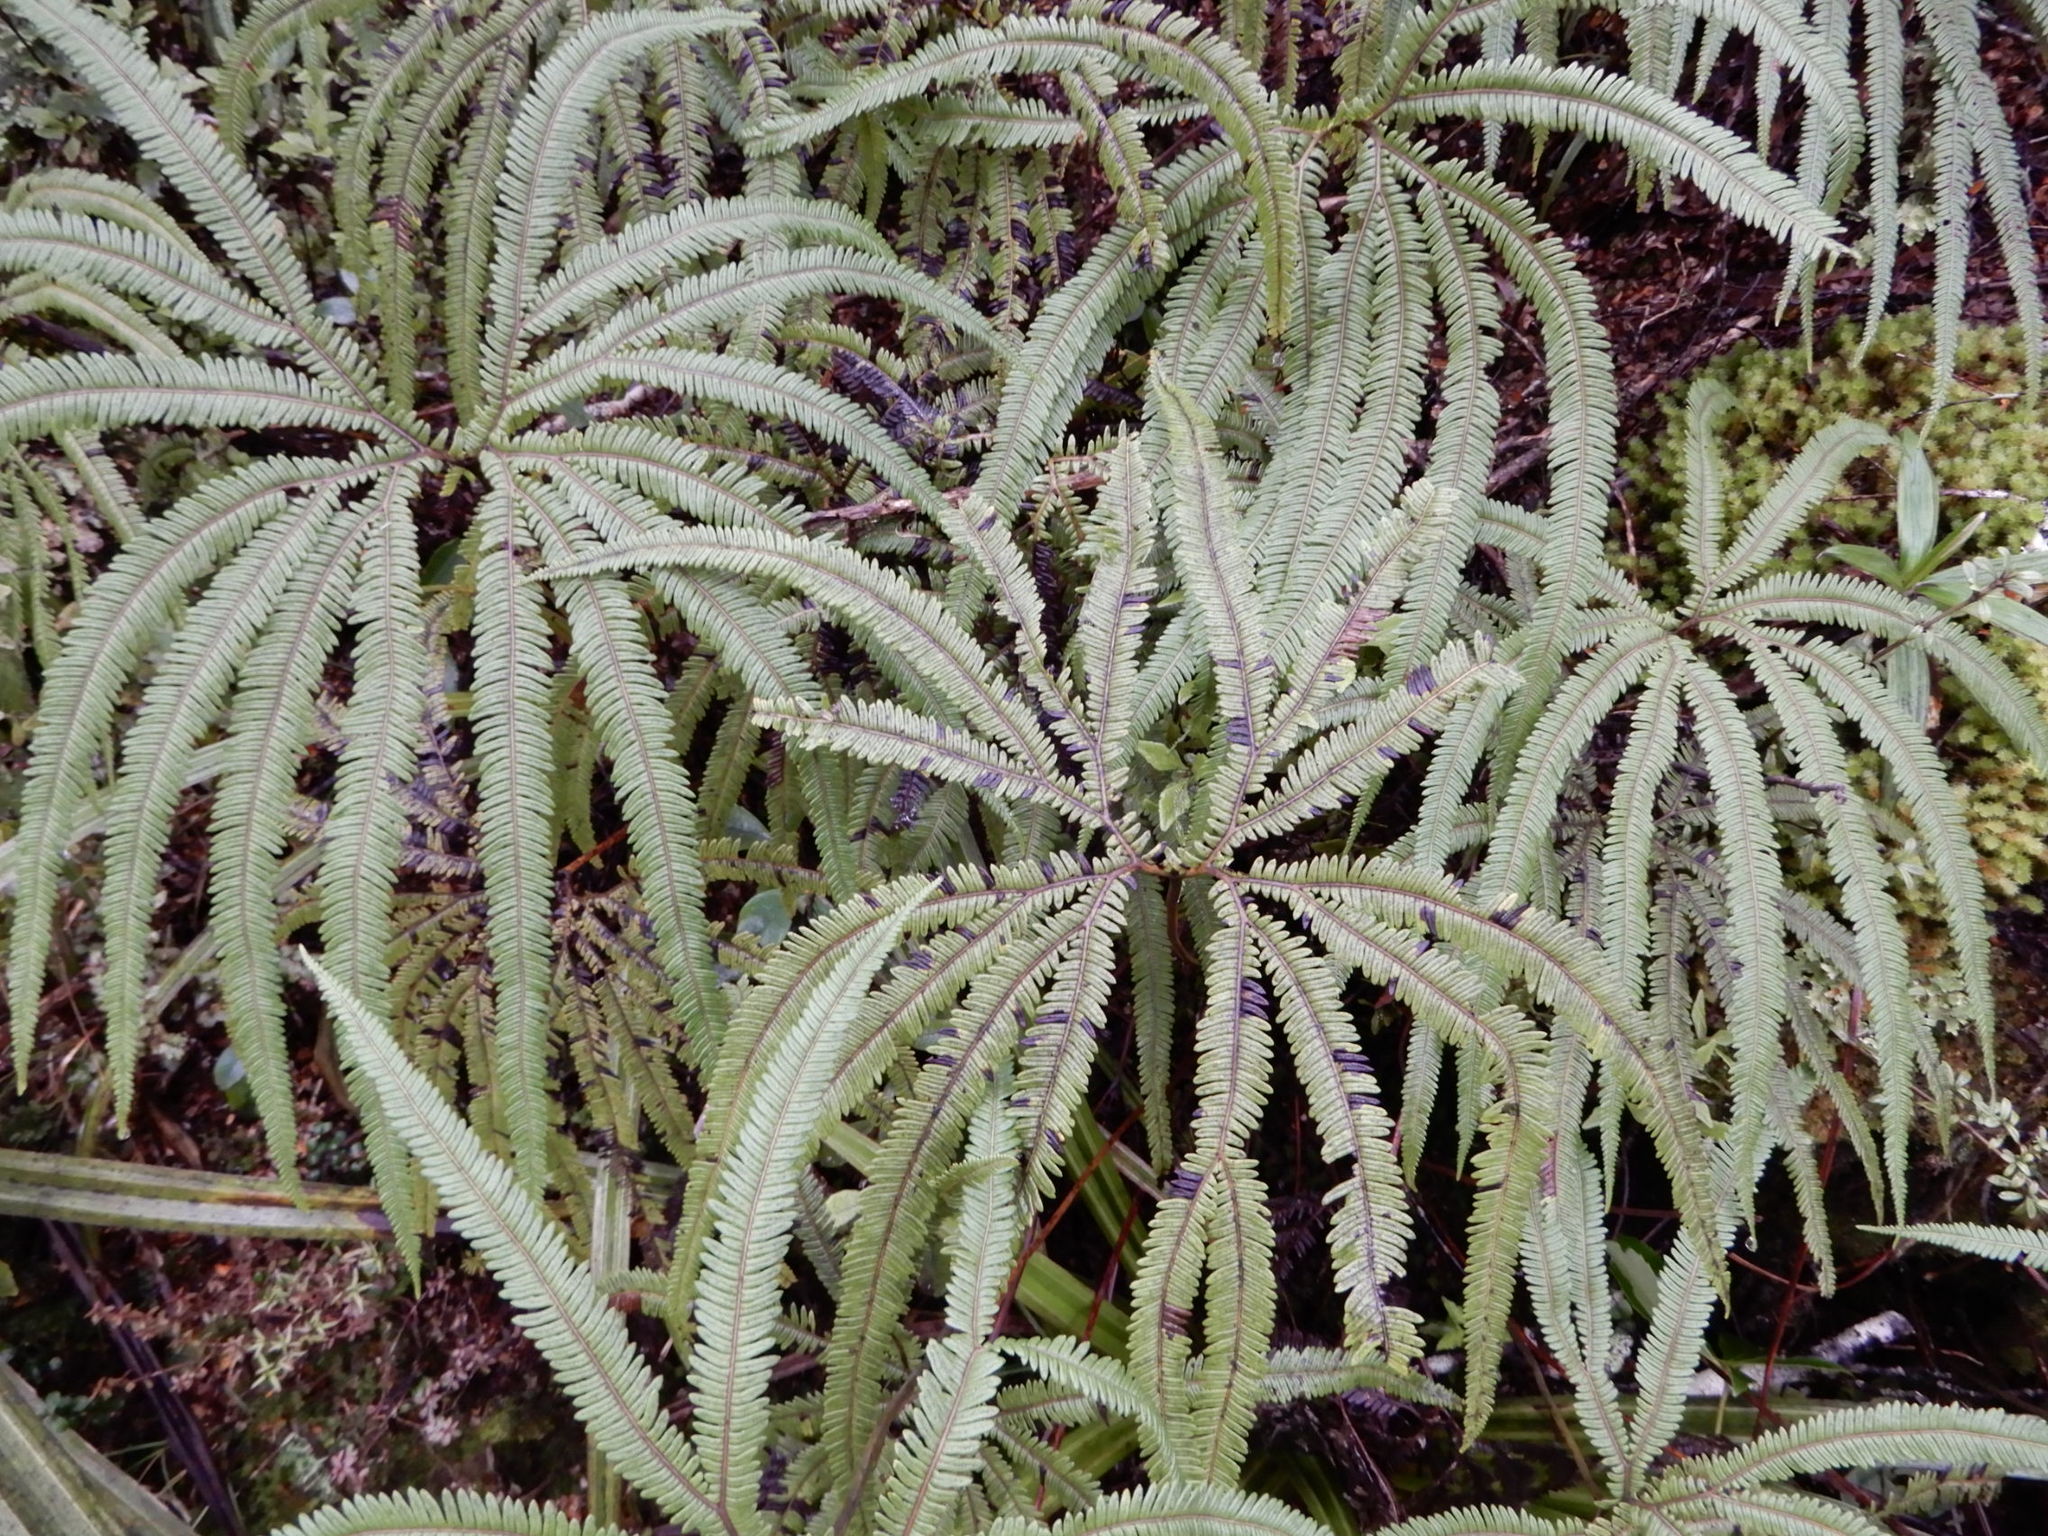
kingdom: Plantae
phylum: Tracheophyta
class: Polypodiopsida
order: Gleicheniales
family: Gleicheniaceae
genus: Sticherus
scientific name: Sticherus cunninghamii
